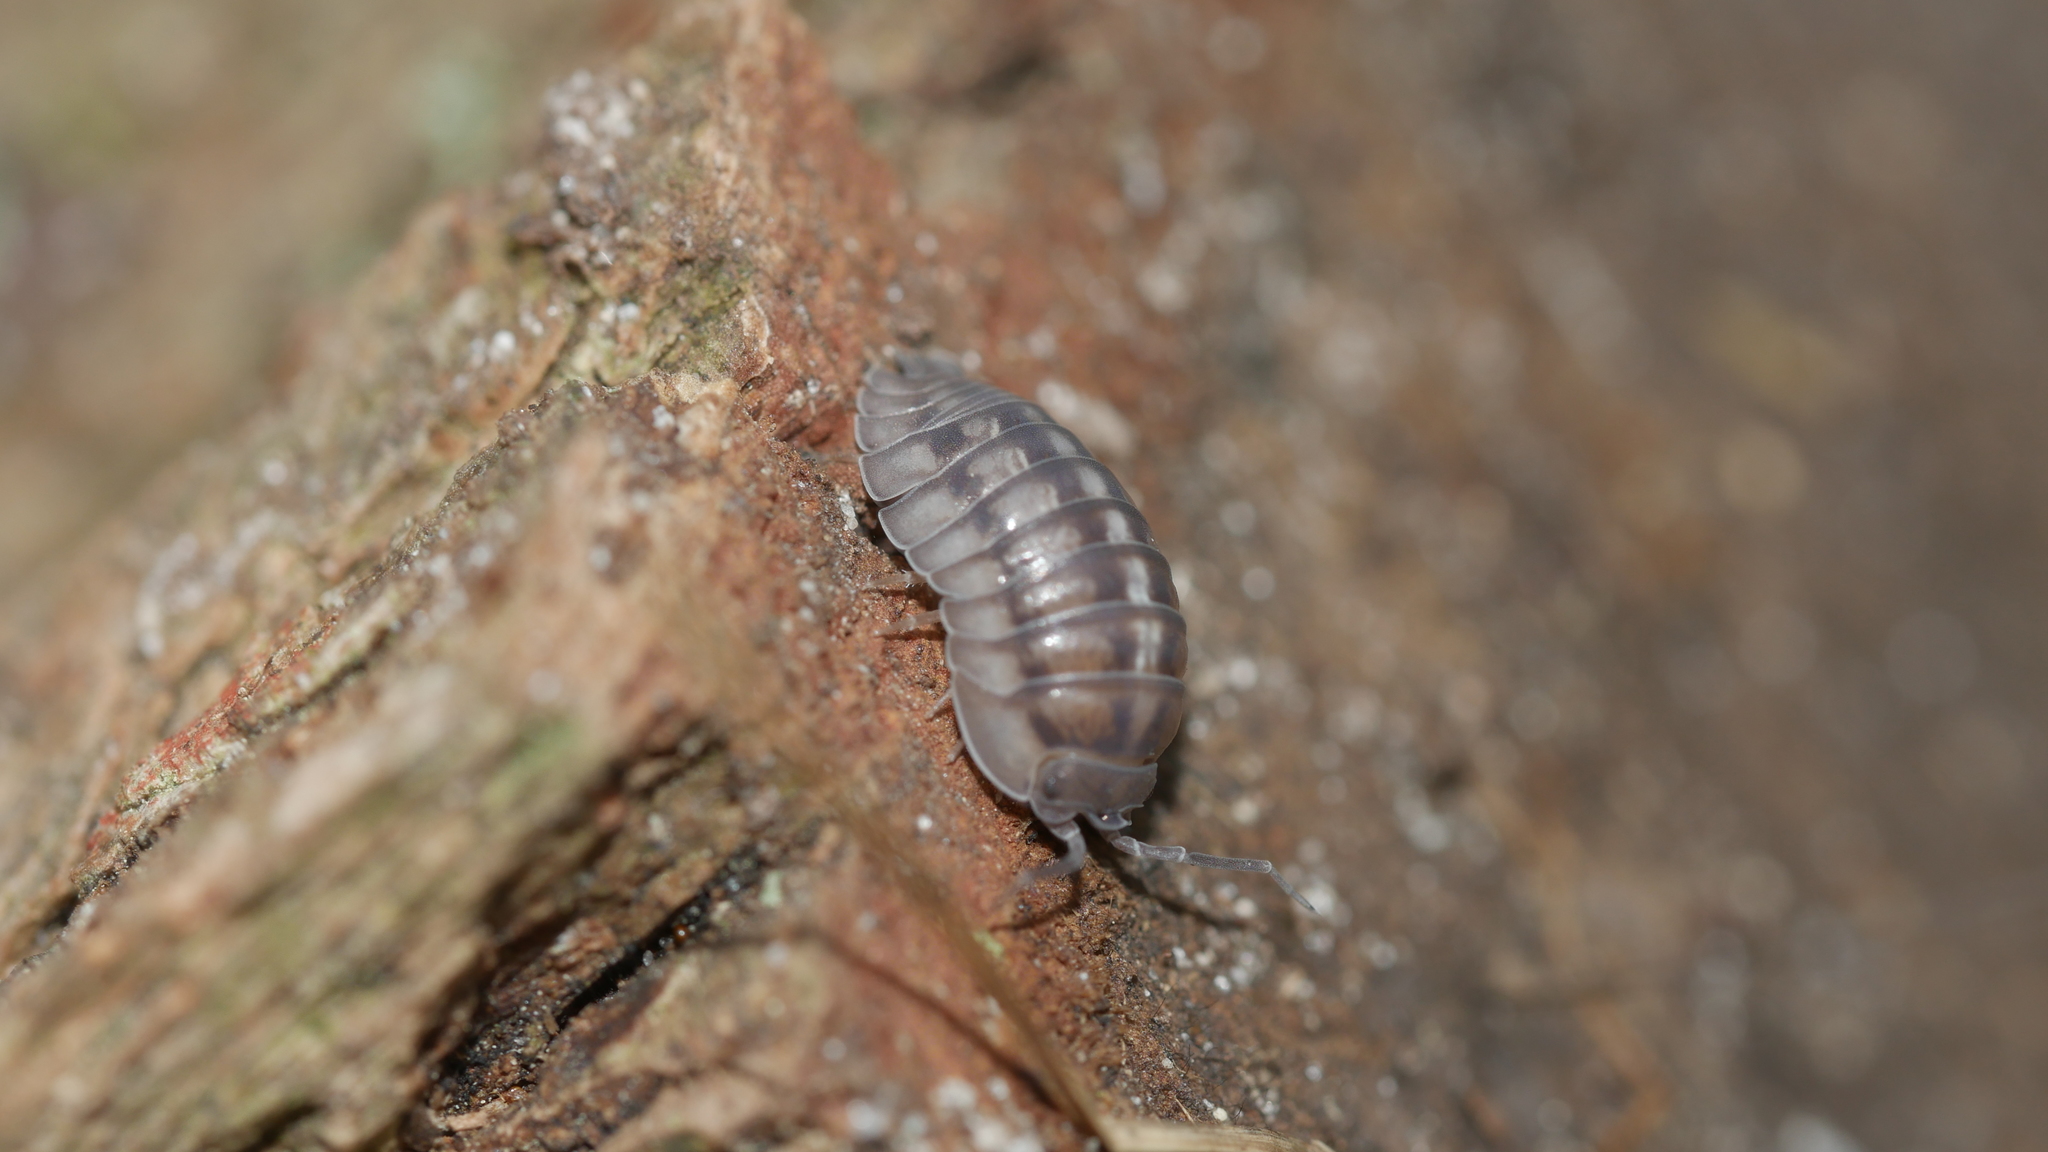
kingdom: Animalia
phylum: Arthropoda
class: Malacostraca
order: Isopoda
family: Armadillidiidae
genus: Armadillidium
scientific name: Armadillidium nasatum
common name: Isopod
